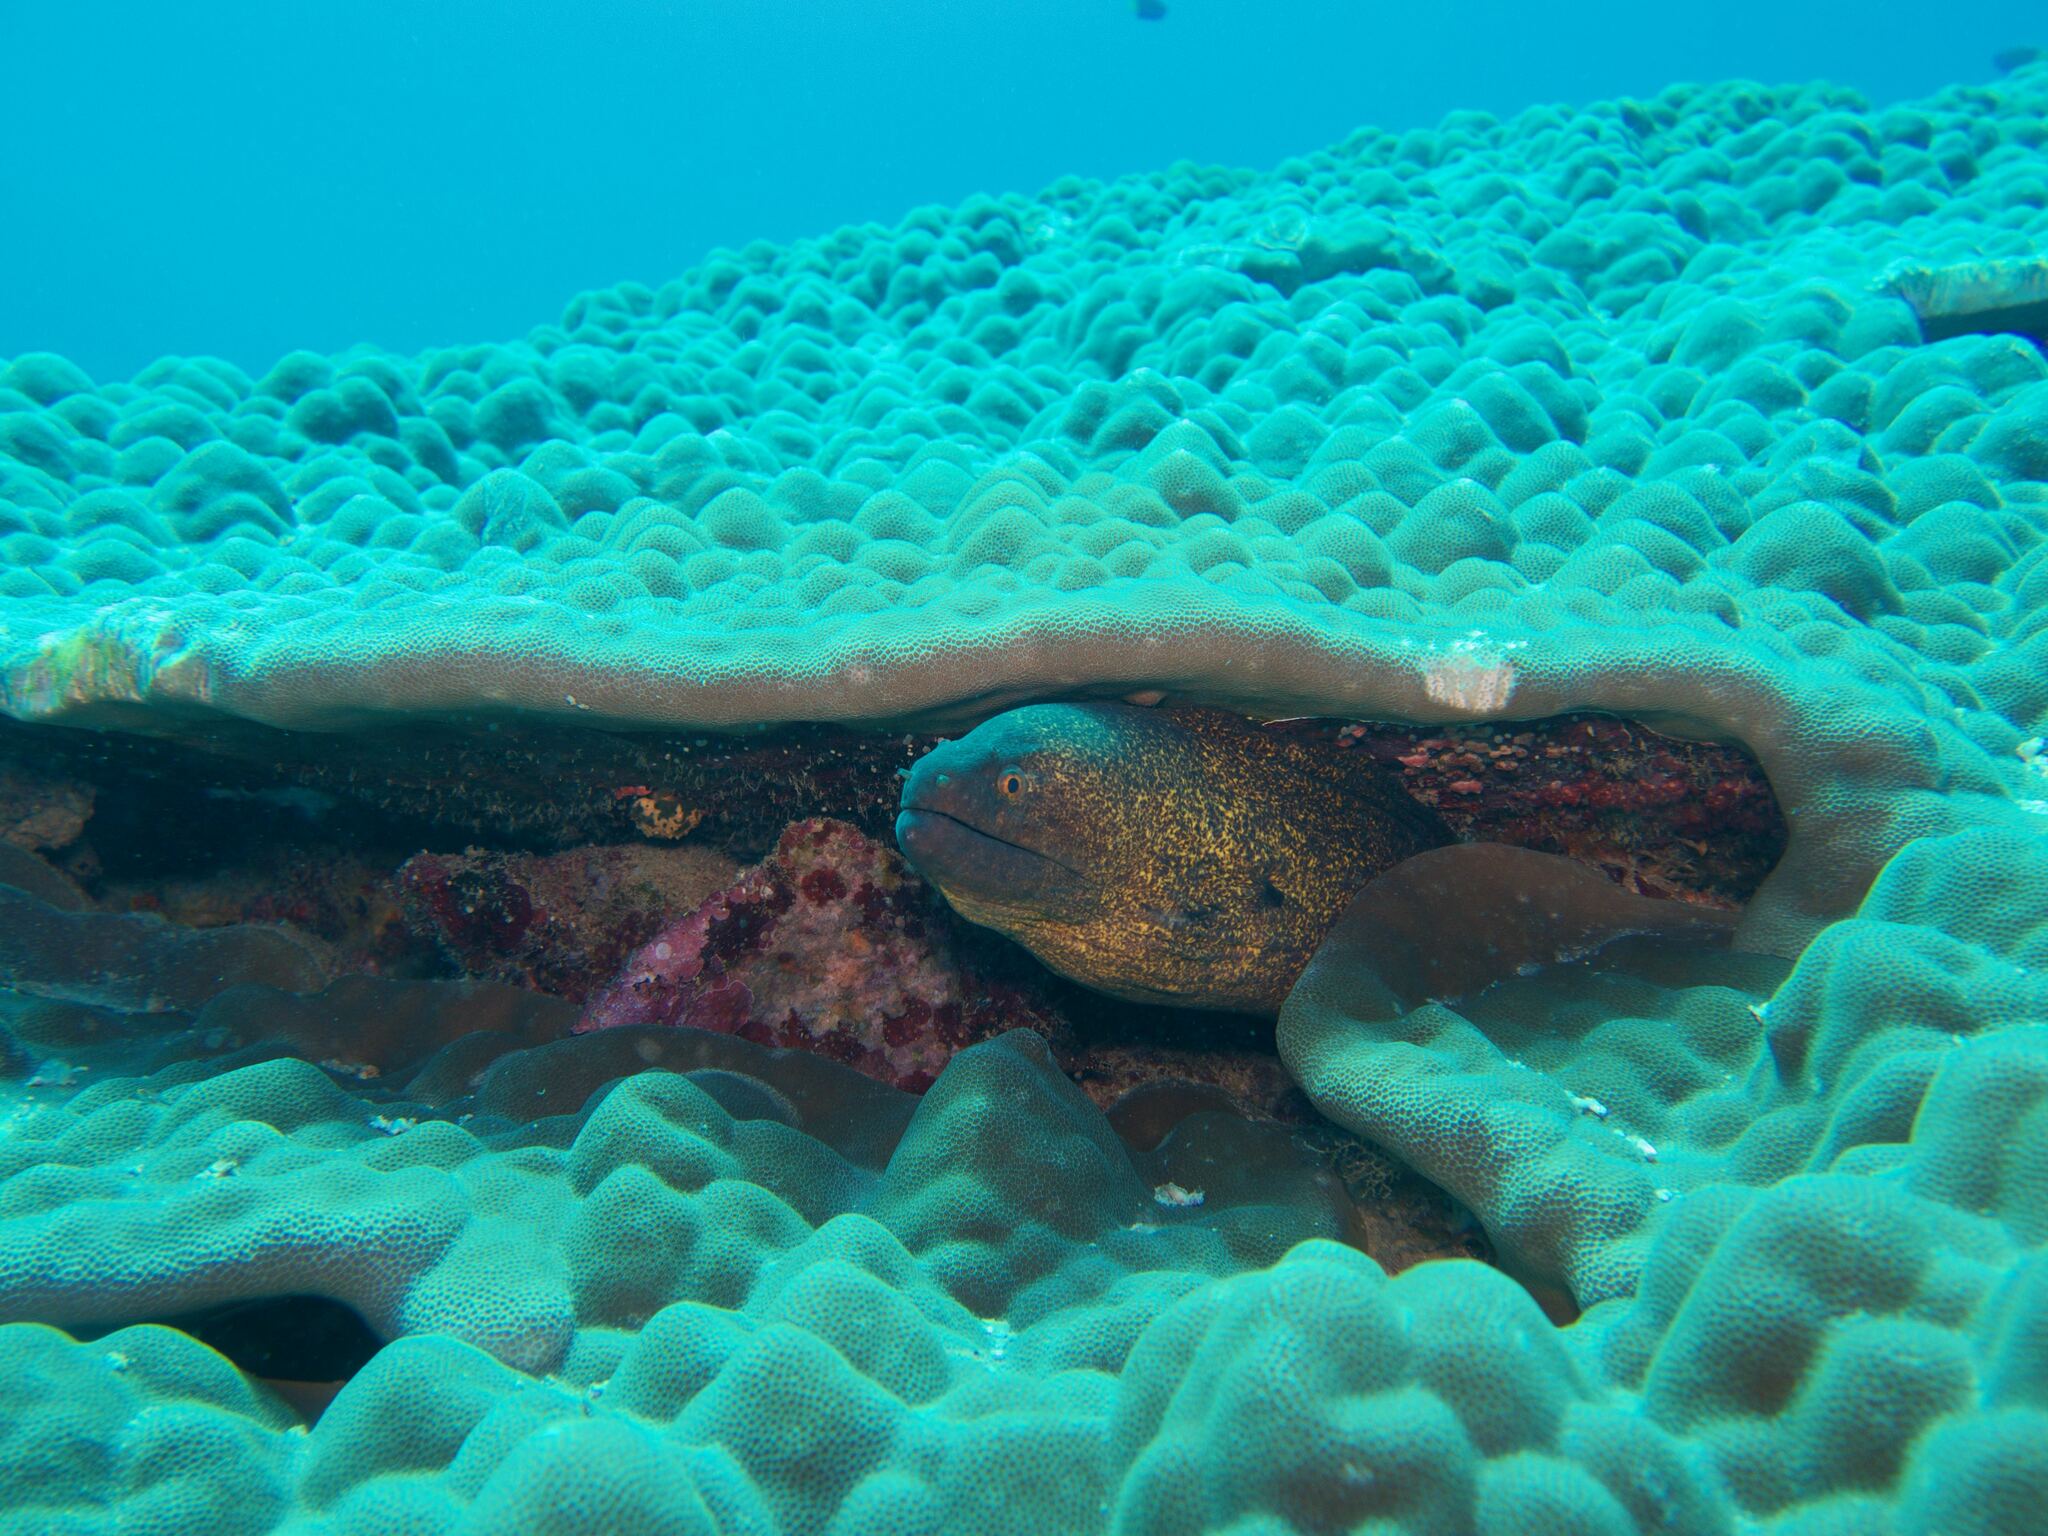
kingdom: Animalia
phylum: Chordata
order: Anguilliformes
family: Muraenidae
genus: Gymnothorax
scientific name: Gymnothorax flavimarginatus
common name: Yellow-edged moray
